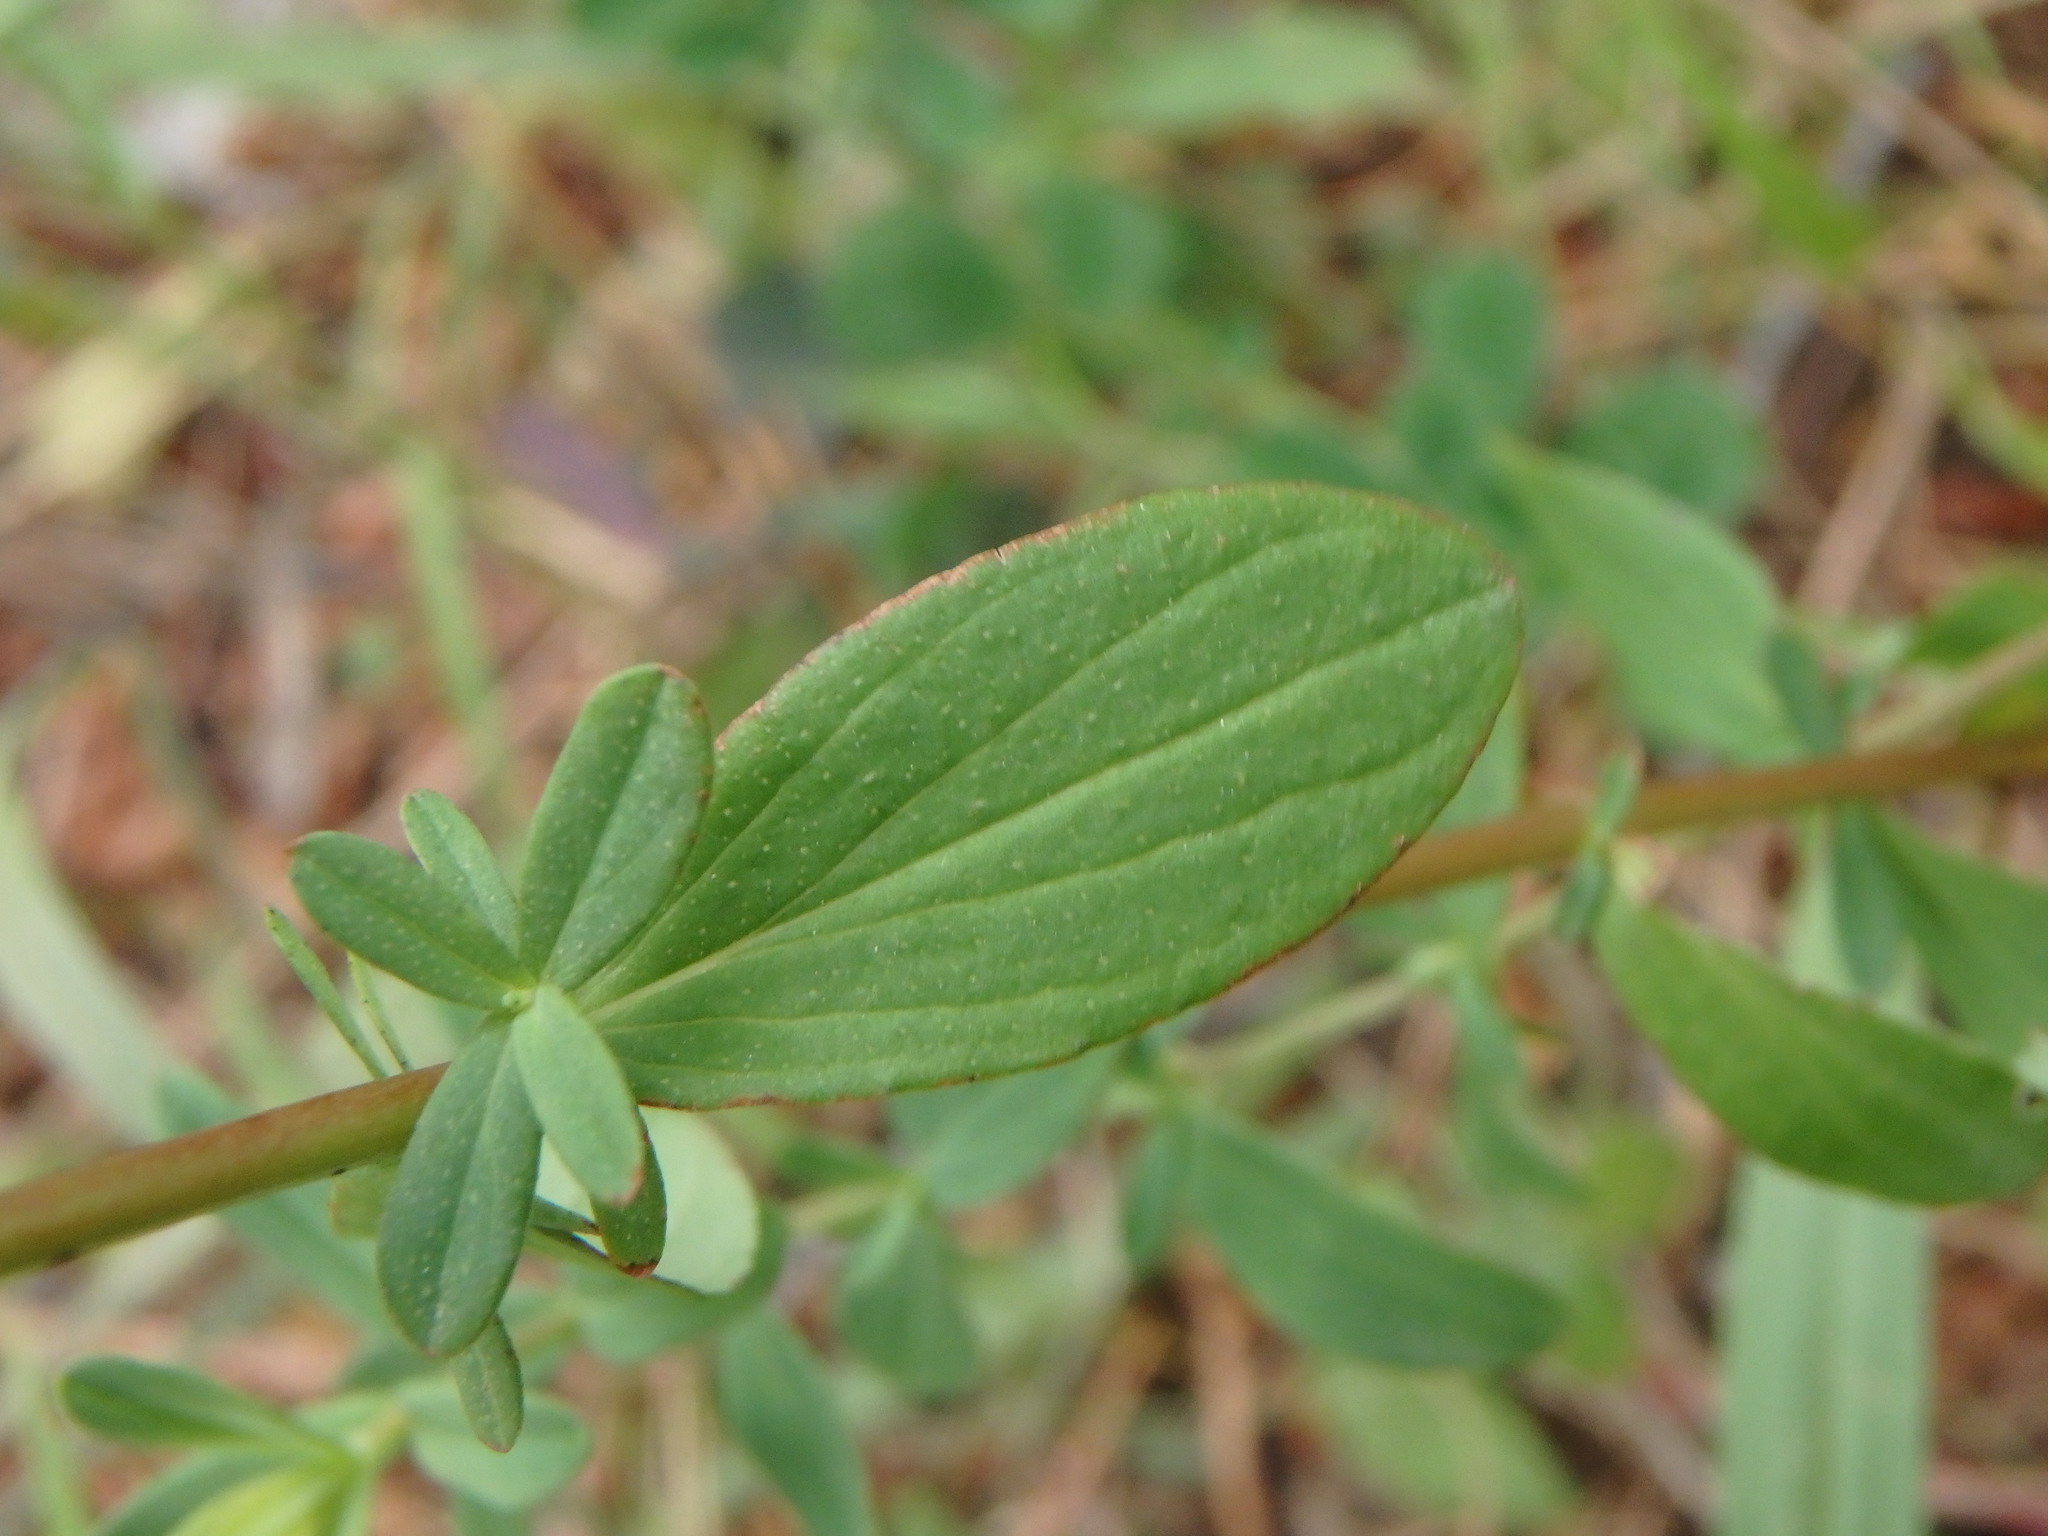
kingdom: Plantae
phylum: Tracheophyta
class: Magnoliopsida
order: Malpighiales
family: Hypericaceae
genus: Hypericum
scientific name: Hypericum perforatum
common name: Common st. johnswort
